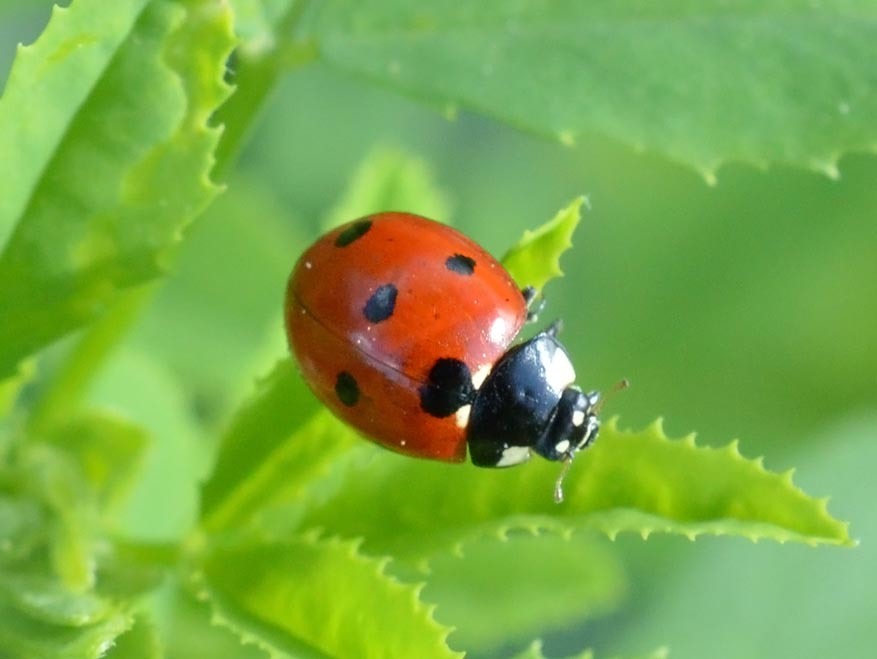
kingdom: Animalia
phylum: Arthropoda
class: Insecta
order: Coleoptera
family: Coccinellidae
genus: Coccinella
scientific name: Coccinella septempunctata
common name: Sevenspotted lady beetle
